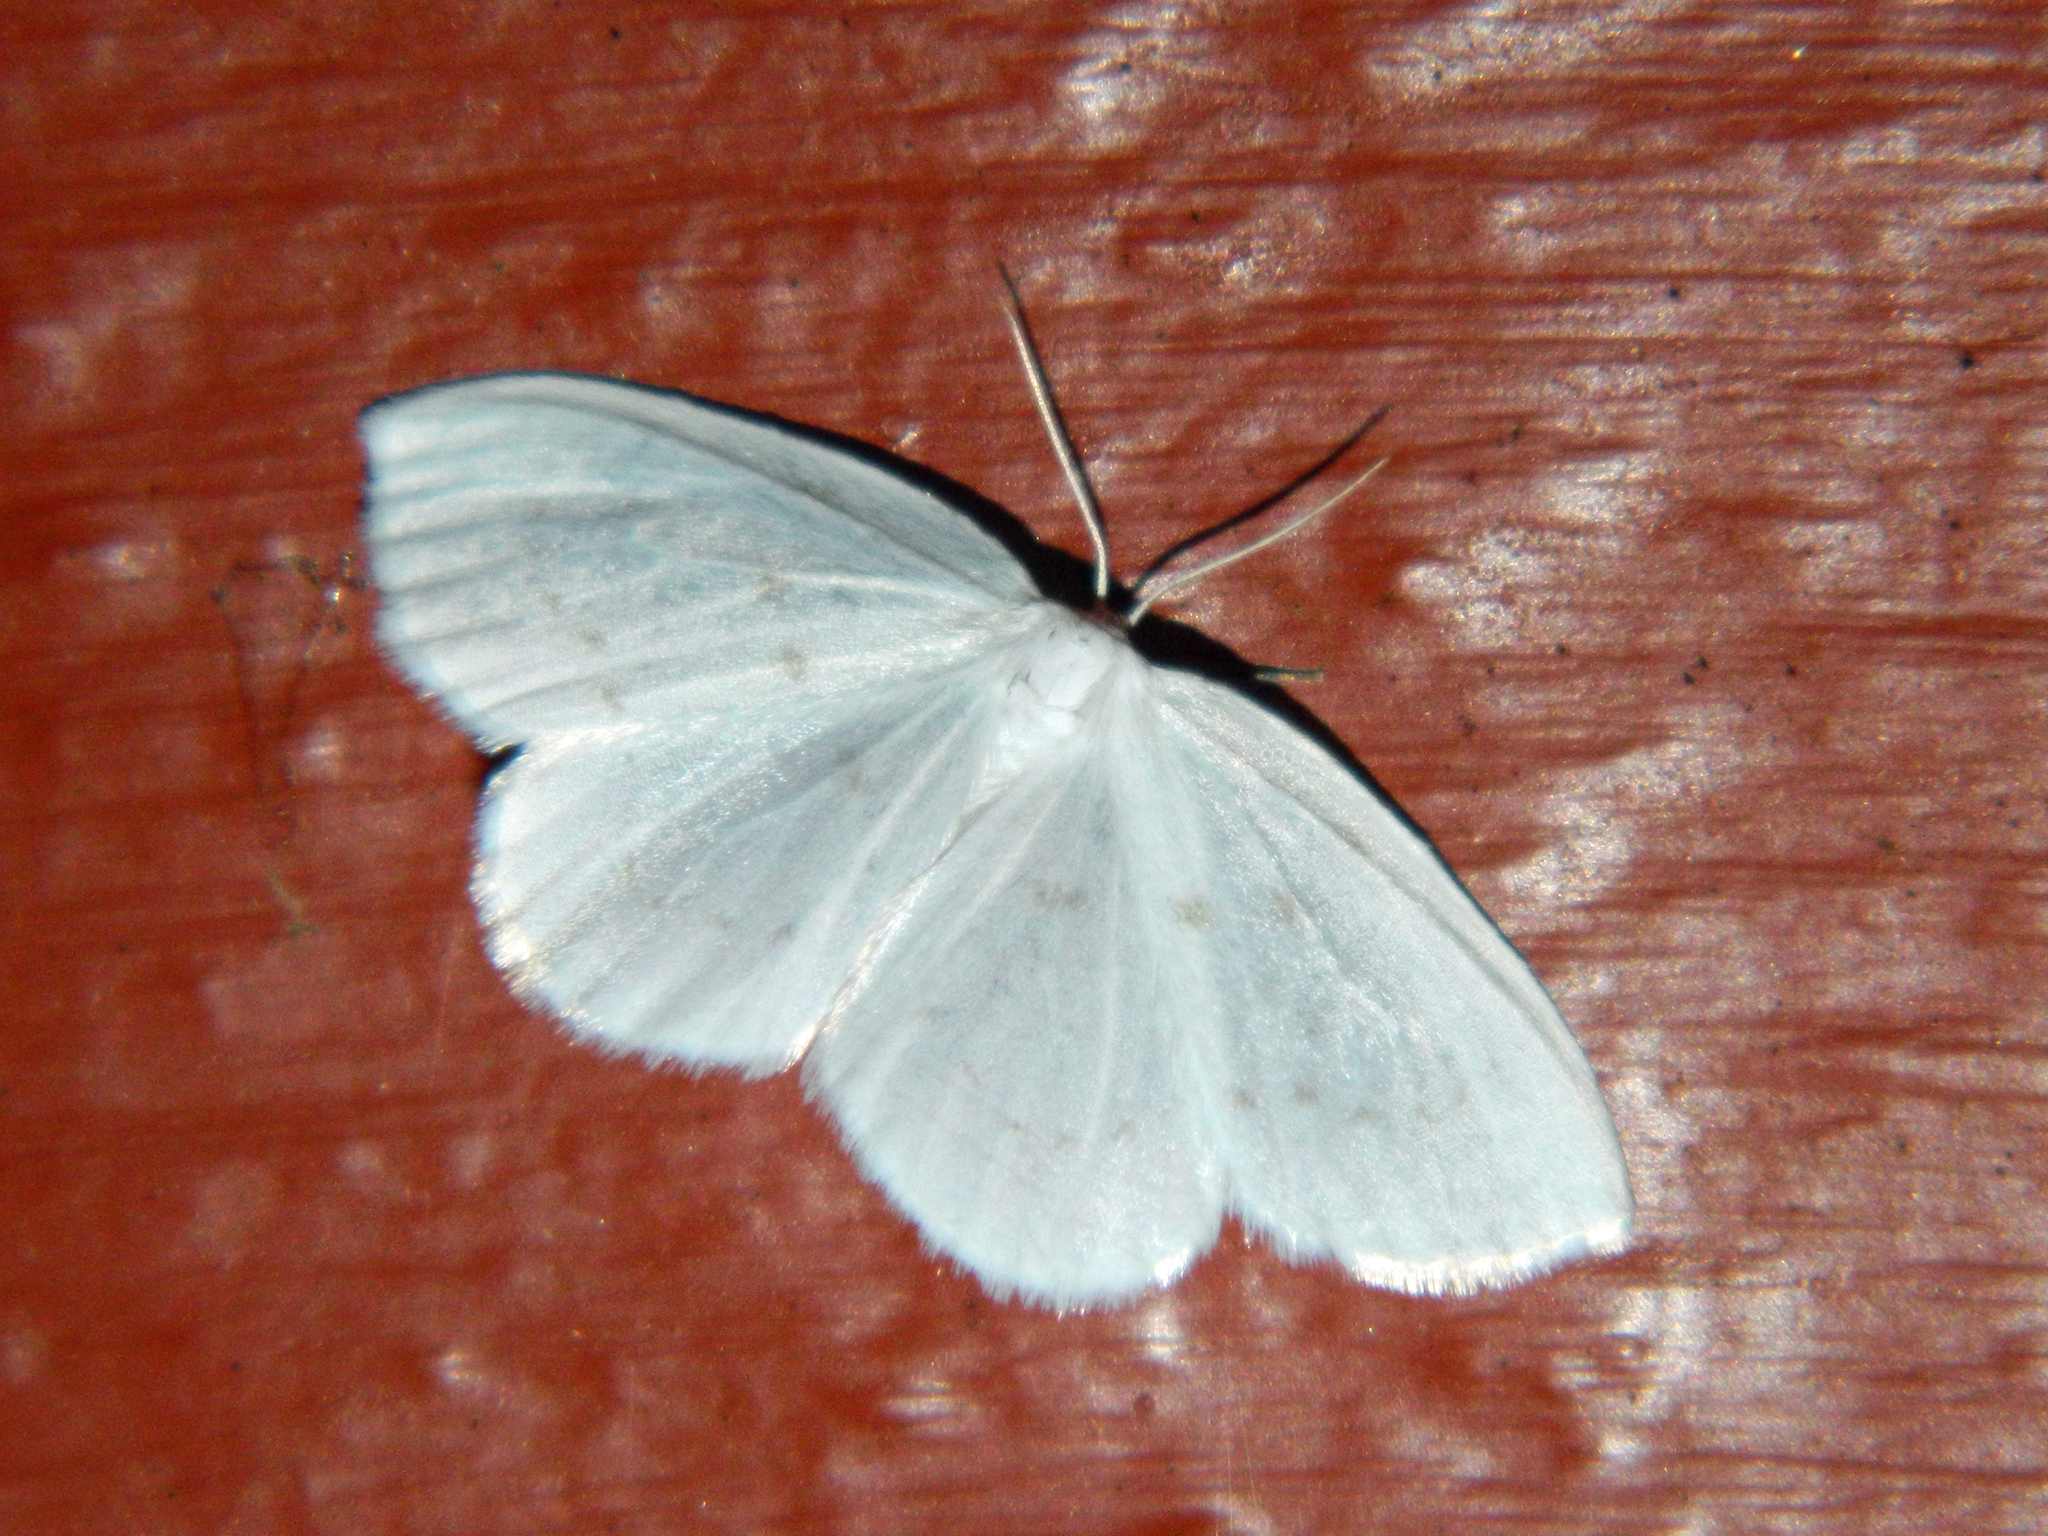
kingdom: Animalia
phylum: Arthropoda
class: Insecta
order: Lepidoptera
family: Drepanidae
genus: Eudeilinia
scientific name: Eudeilinia herminiata
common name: Northern eudeilinea moth
